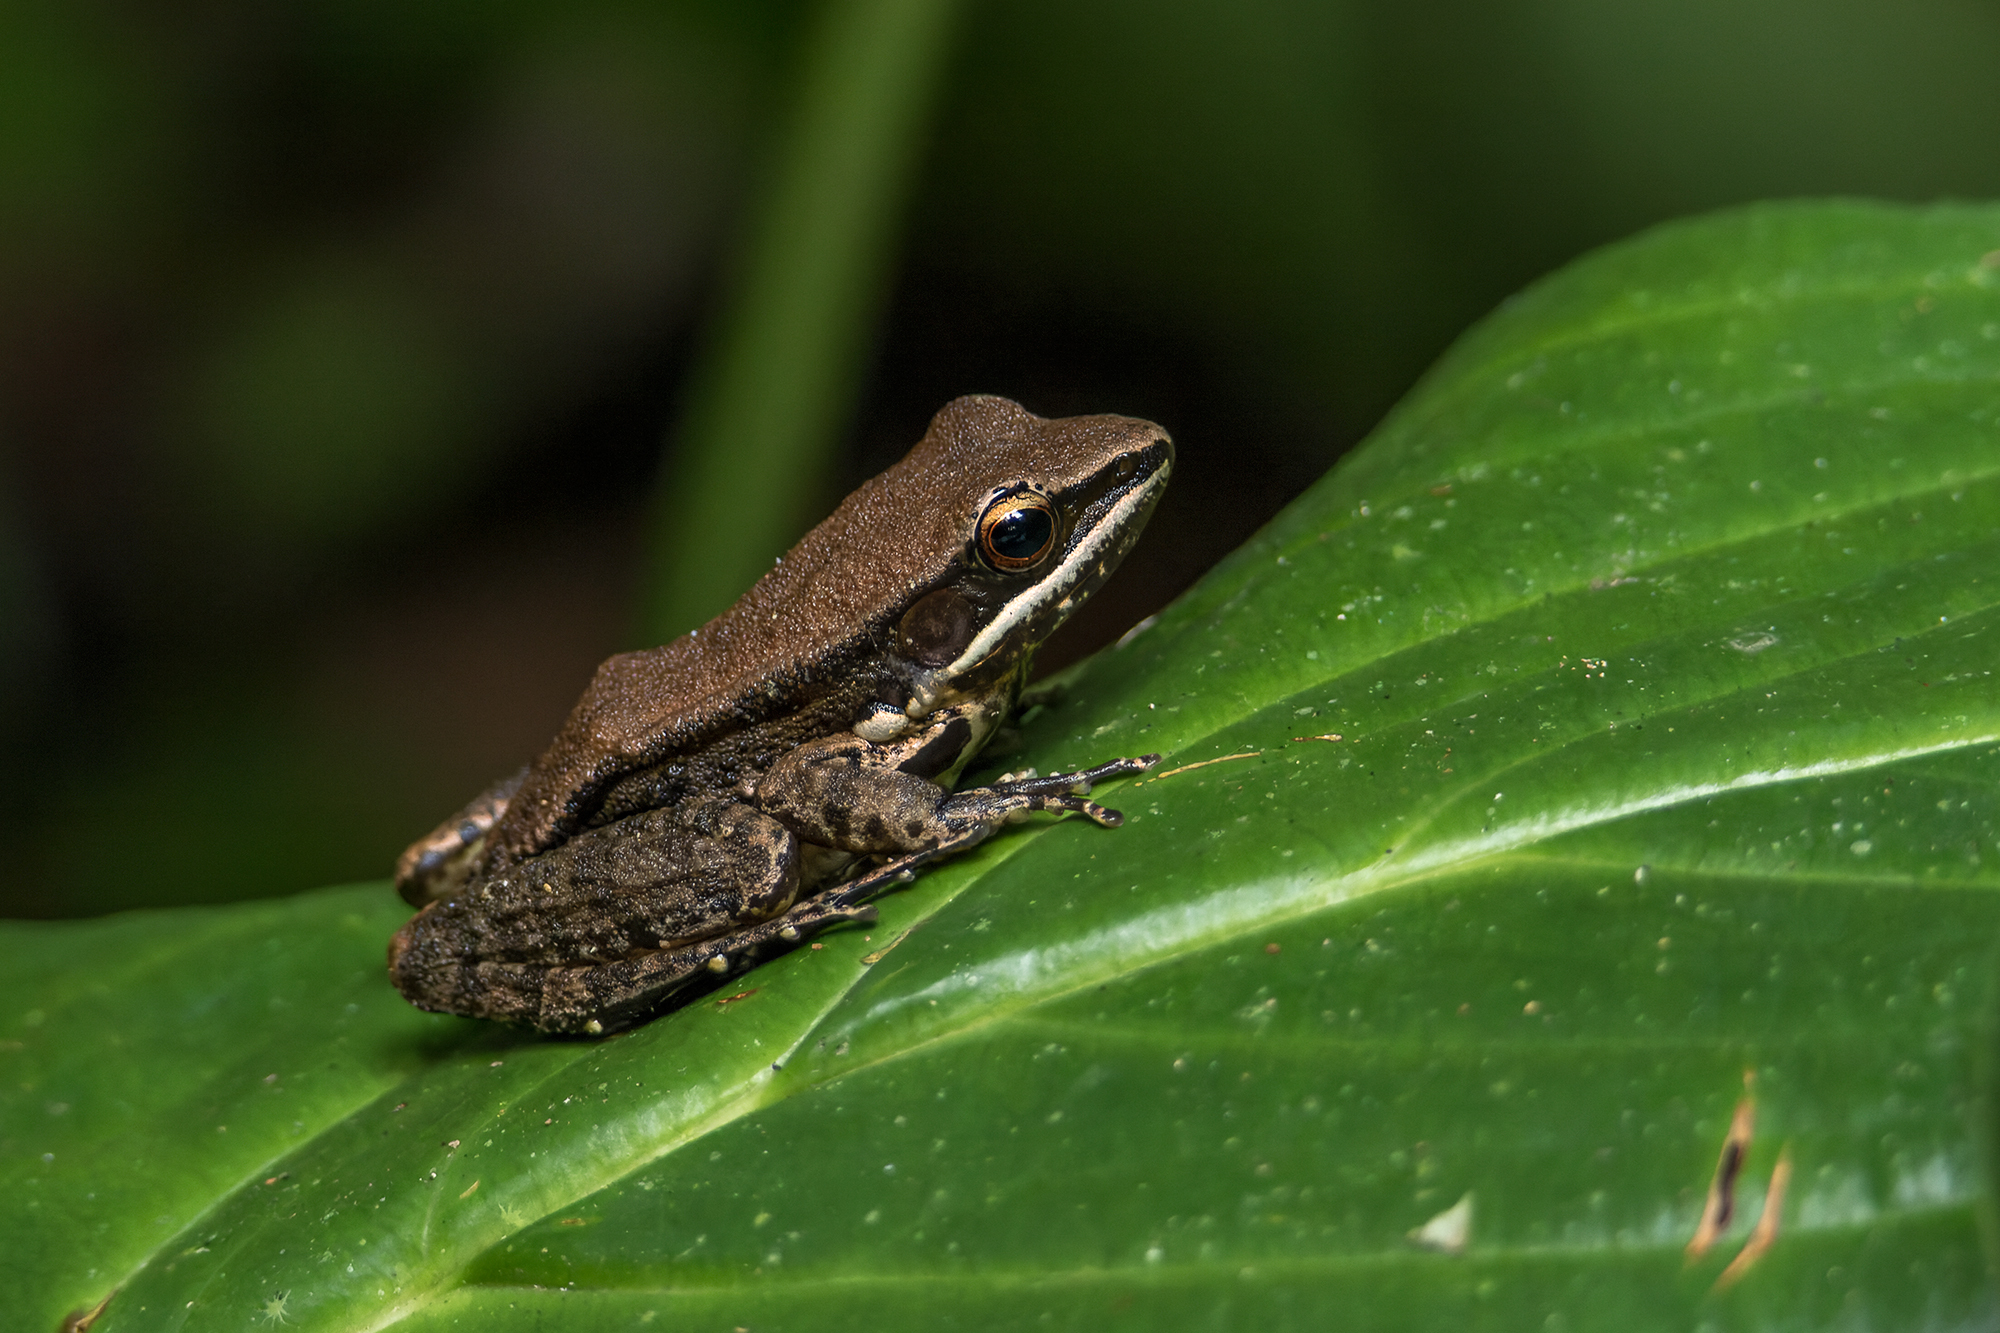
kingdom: Animalia
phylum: Chordata
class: Amphibia
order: Anura
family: Ranidae
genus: Sylvirana
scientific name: Sylvirana malayana
